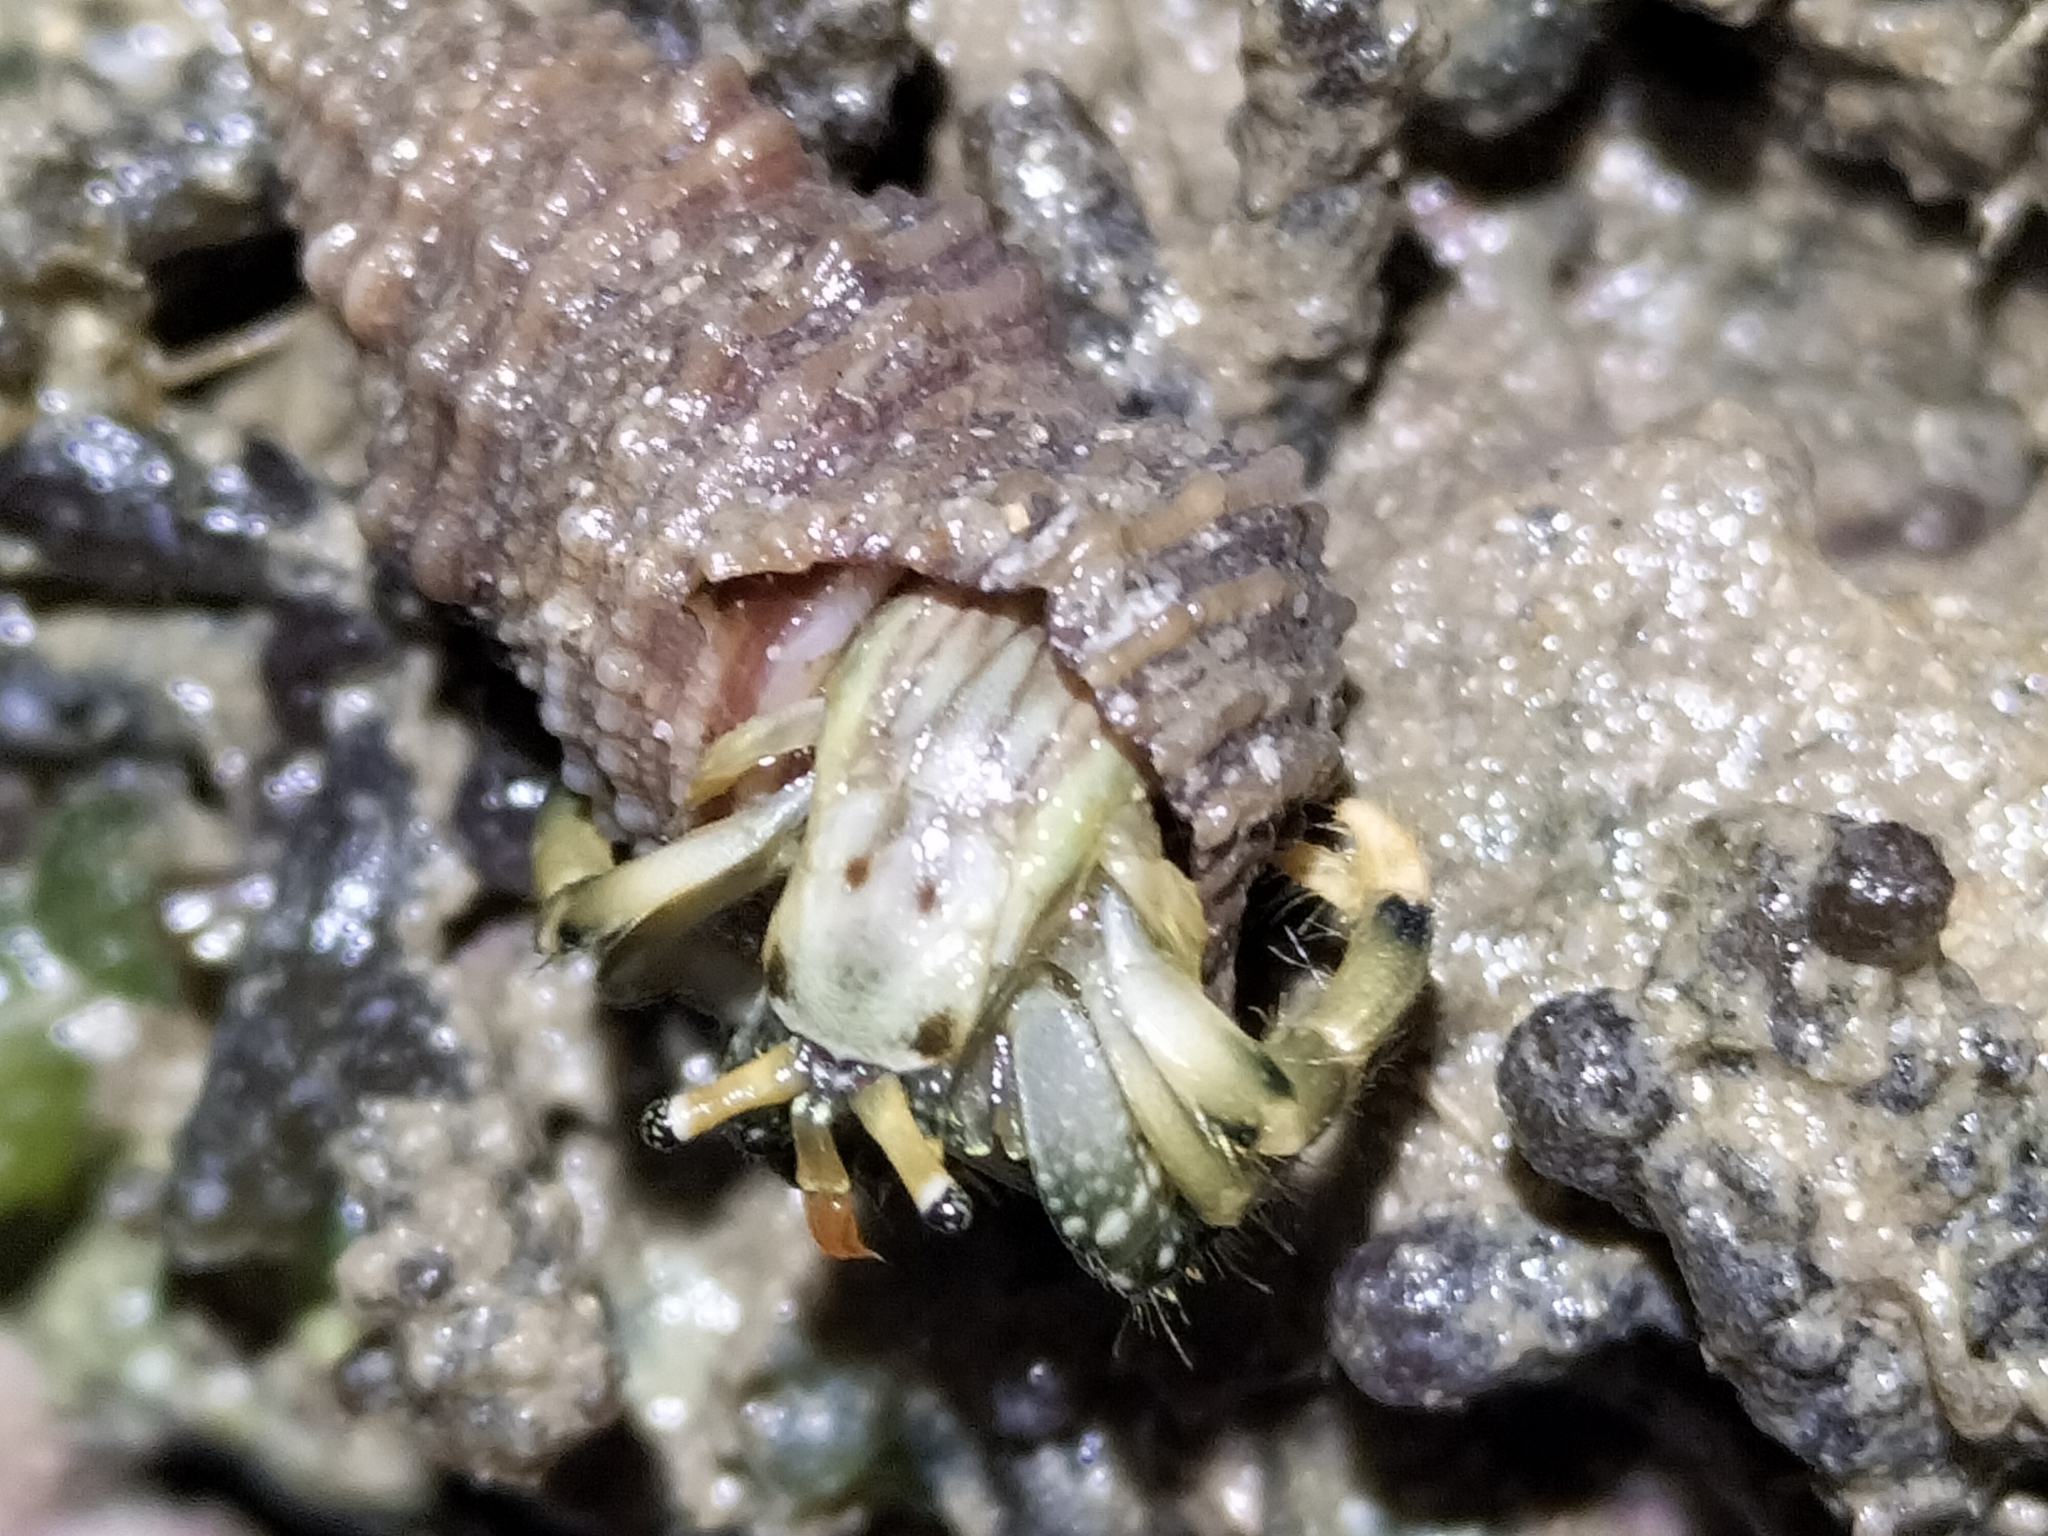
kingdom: Animalia
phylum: Arthropoda
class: Malacostraca
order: Decapoda
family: Diogenidae
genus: Clibanarius
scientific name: Clibanarius virescens
